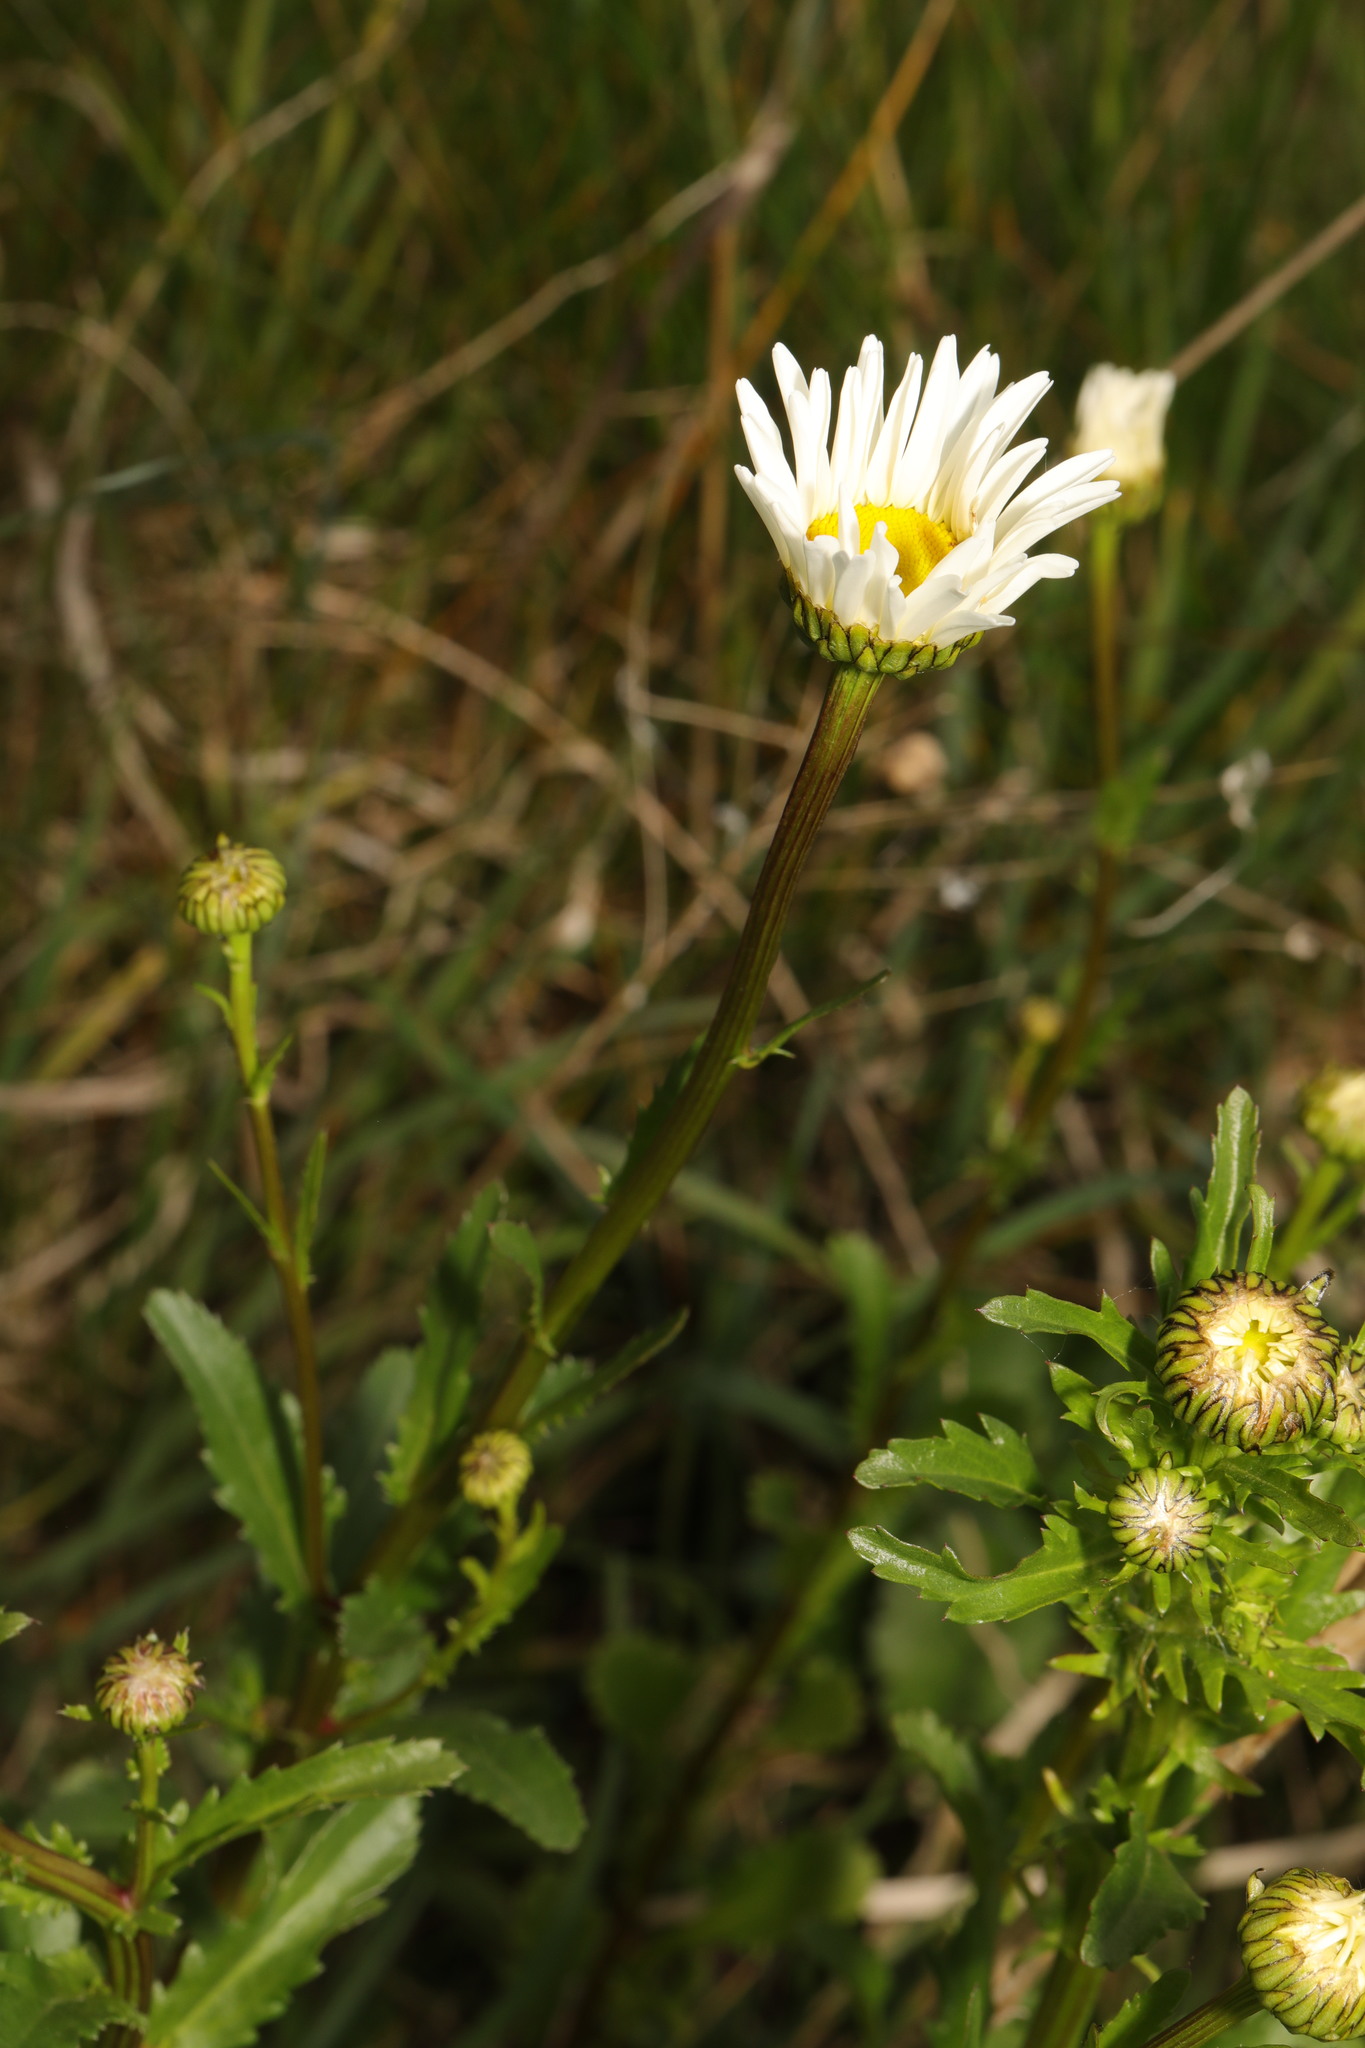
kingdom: Plantae
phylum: Tracheophyta
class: Magnoliopsida
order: Asterales
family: Asteraceae
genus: Leucanthemum
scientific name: Leucanthemum vulgare
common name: Oxeye daisy
